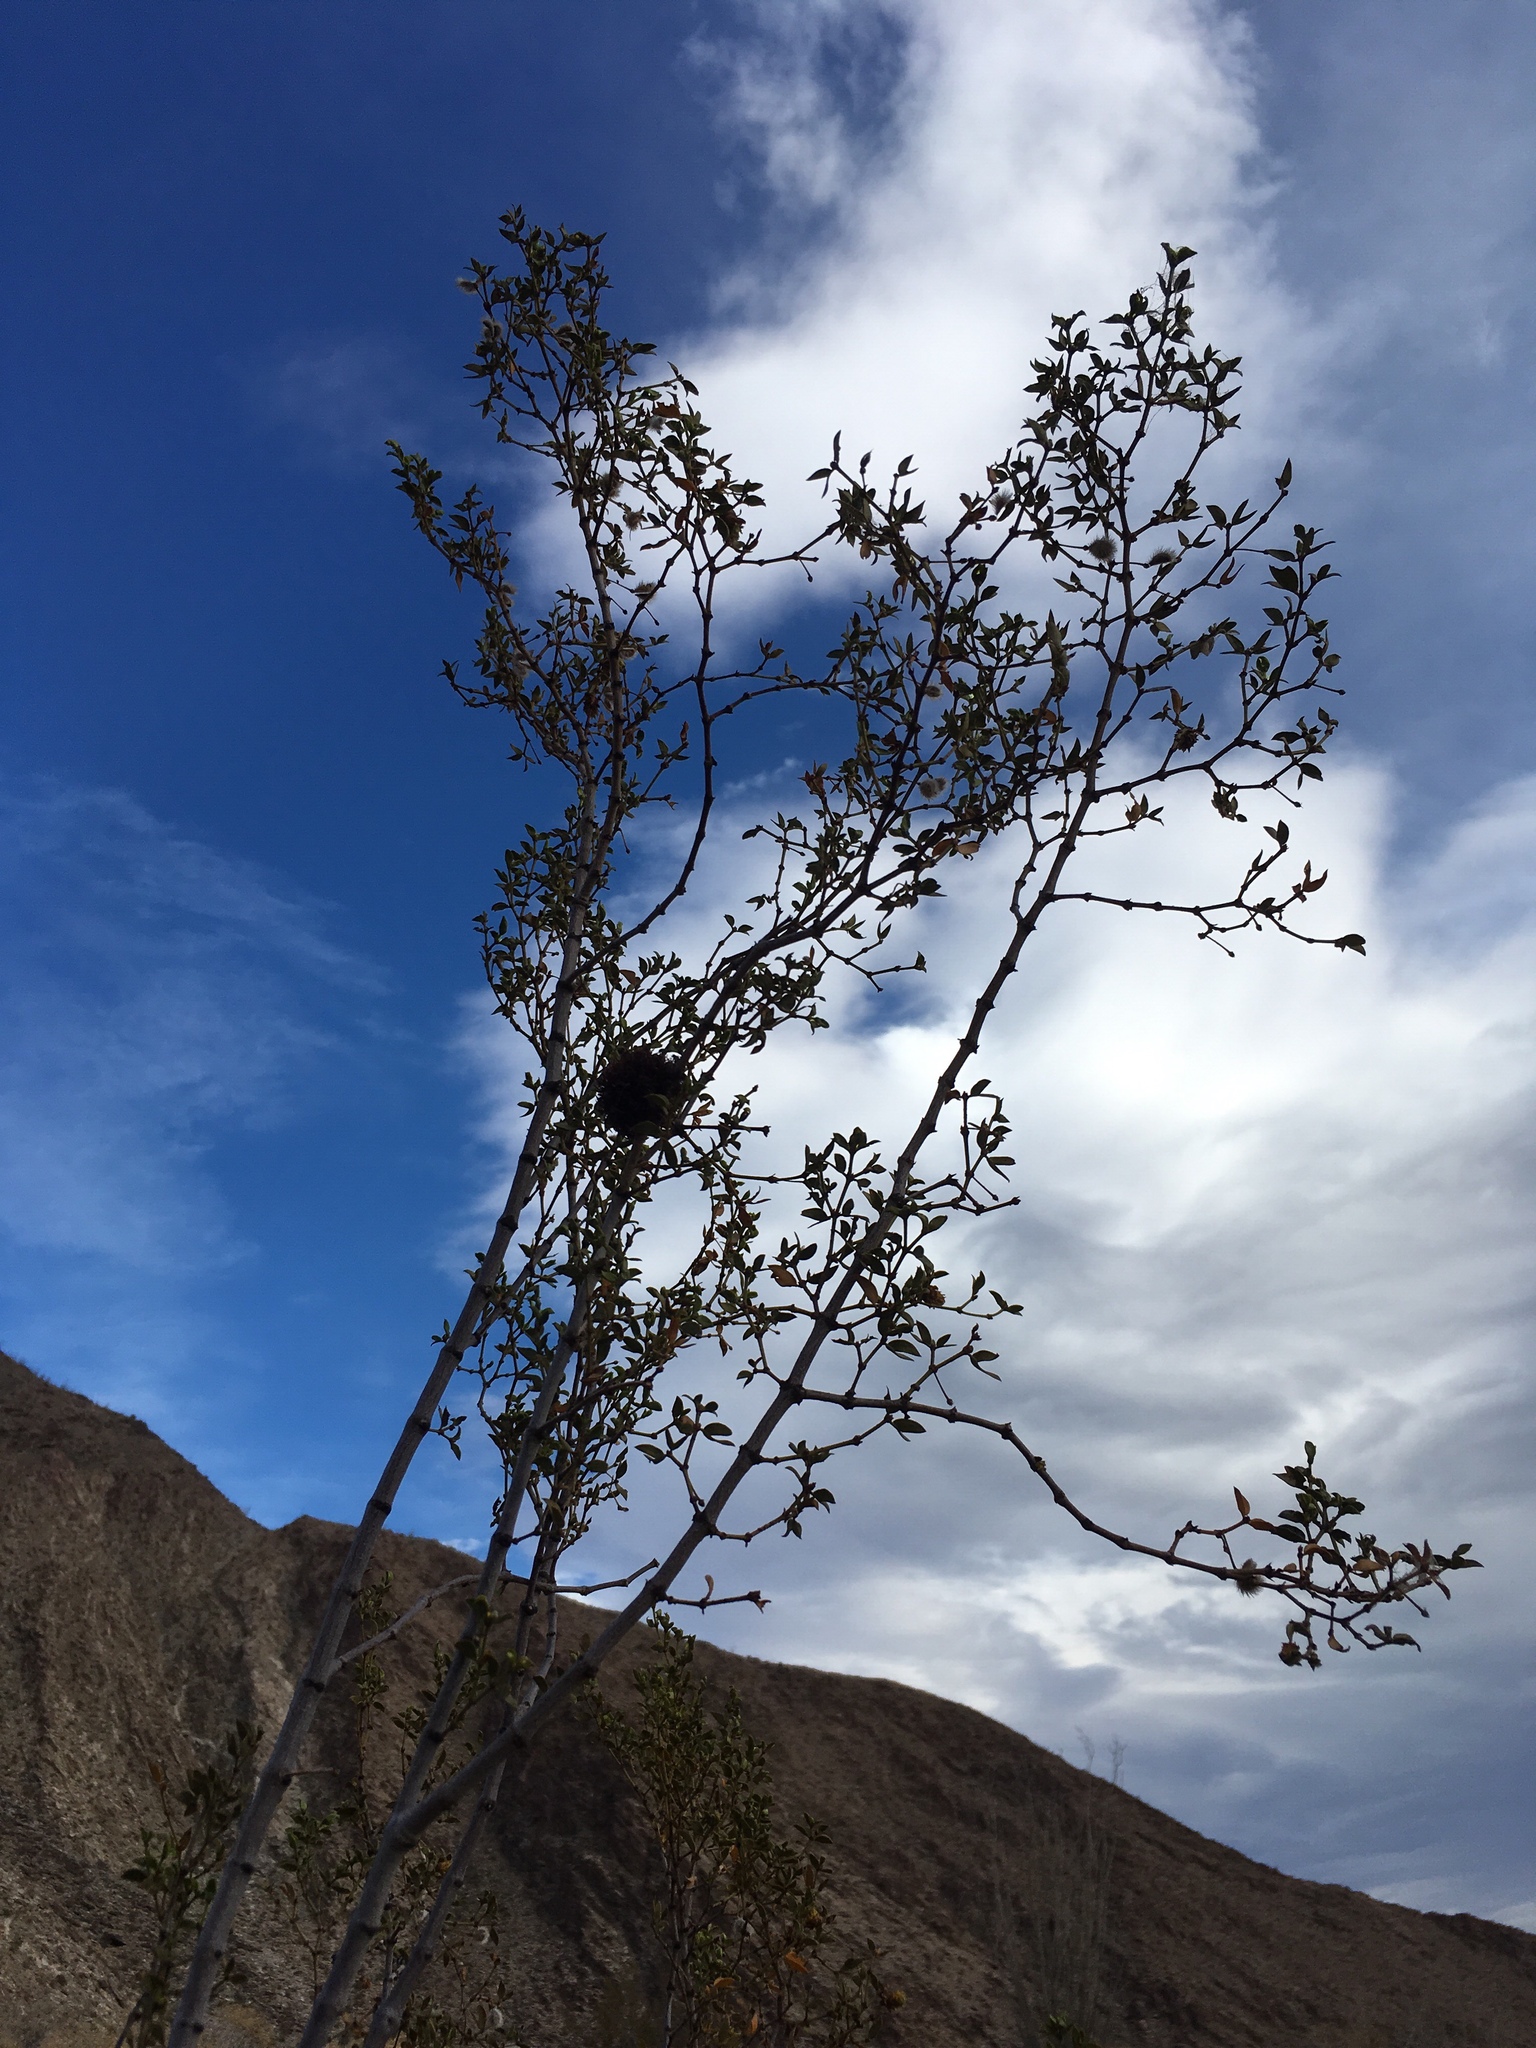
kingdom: Plantae
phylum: Tracheophyta
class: Magnoliopsida
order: Zygophyllales
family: Zygophyllaceae
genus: Larrea
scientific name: Larrea tridentata
